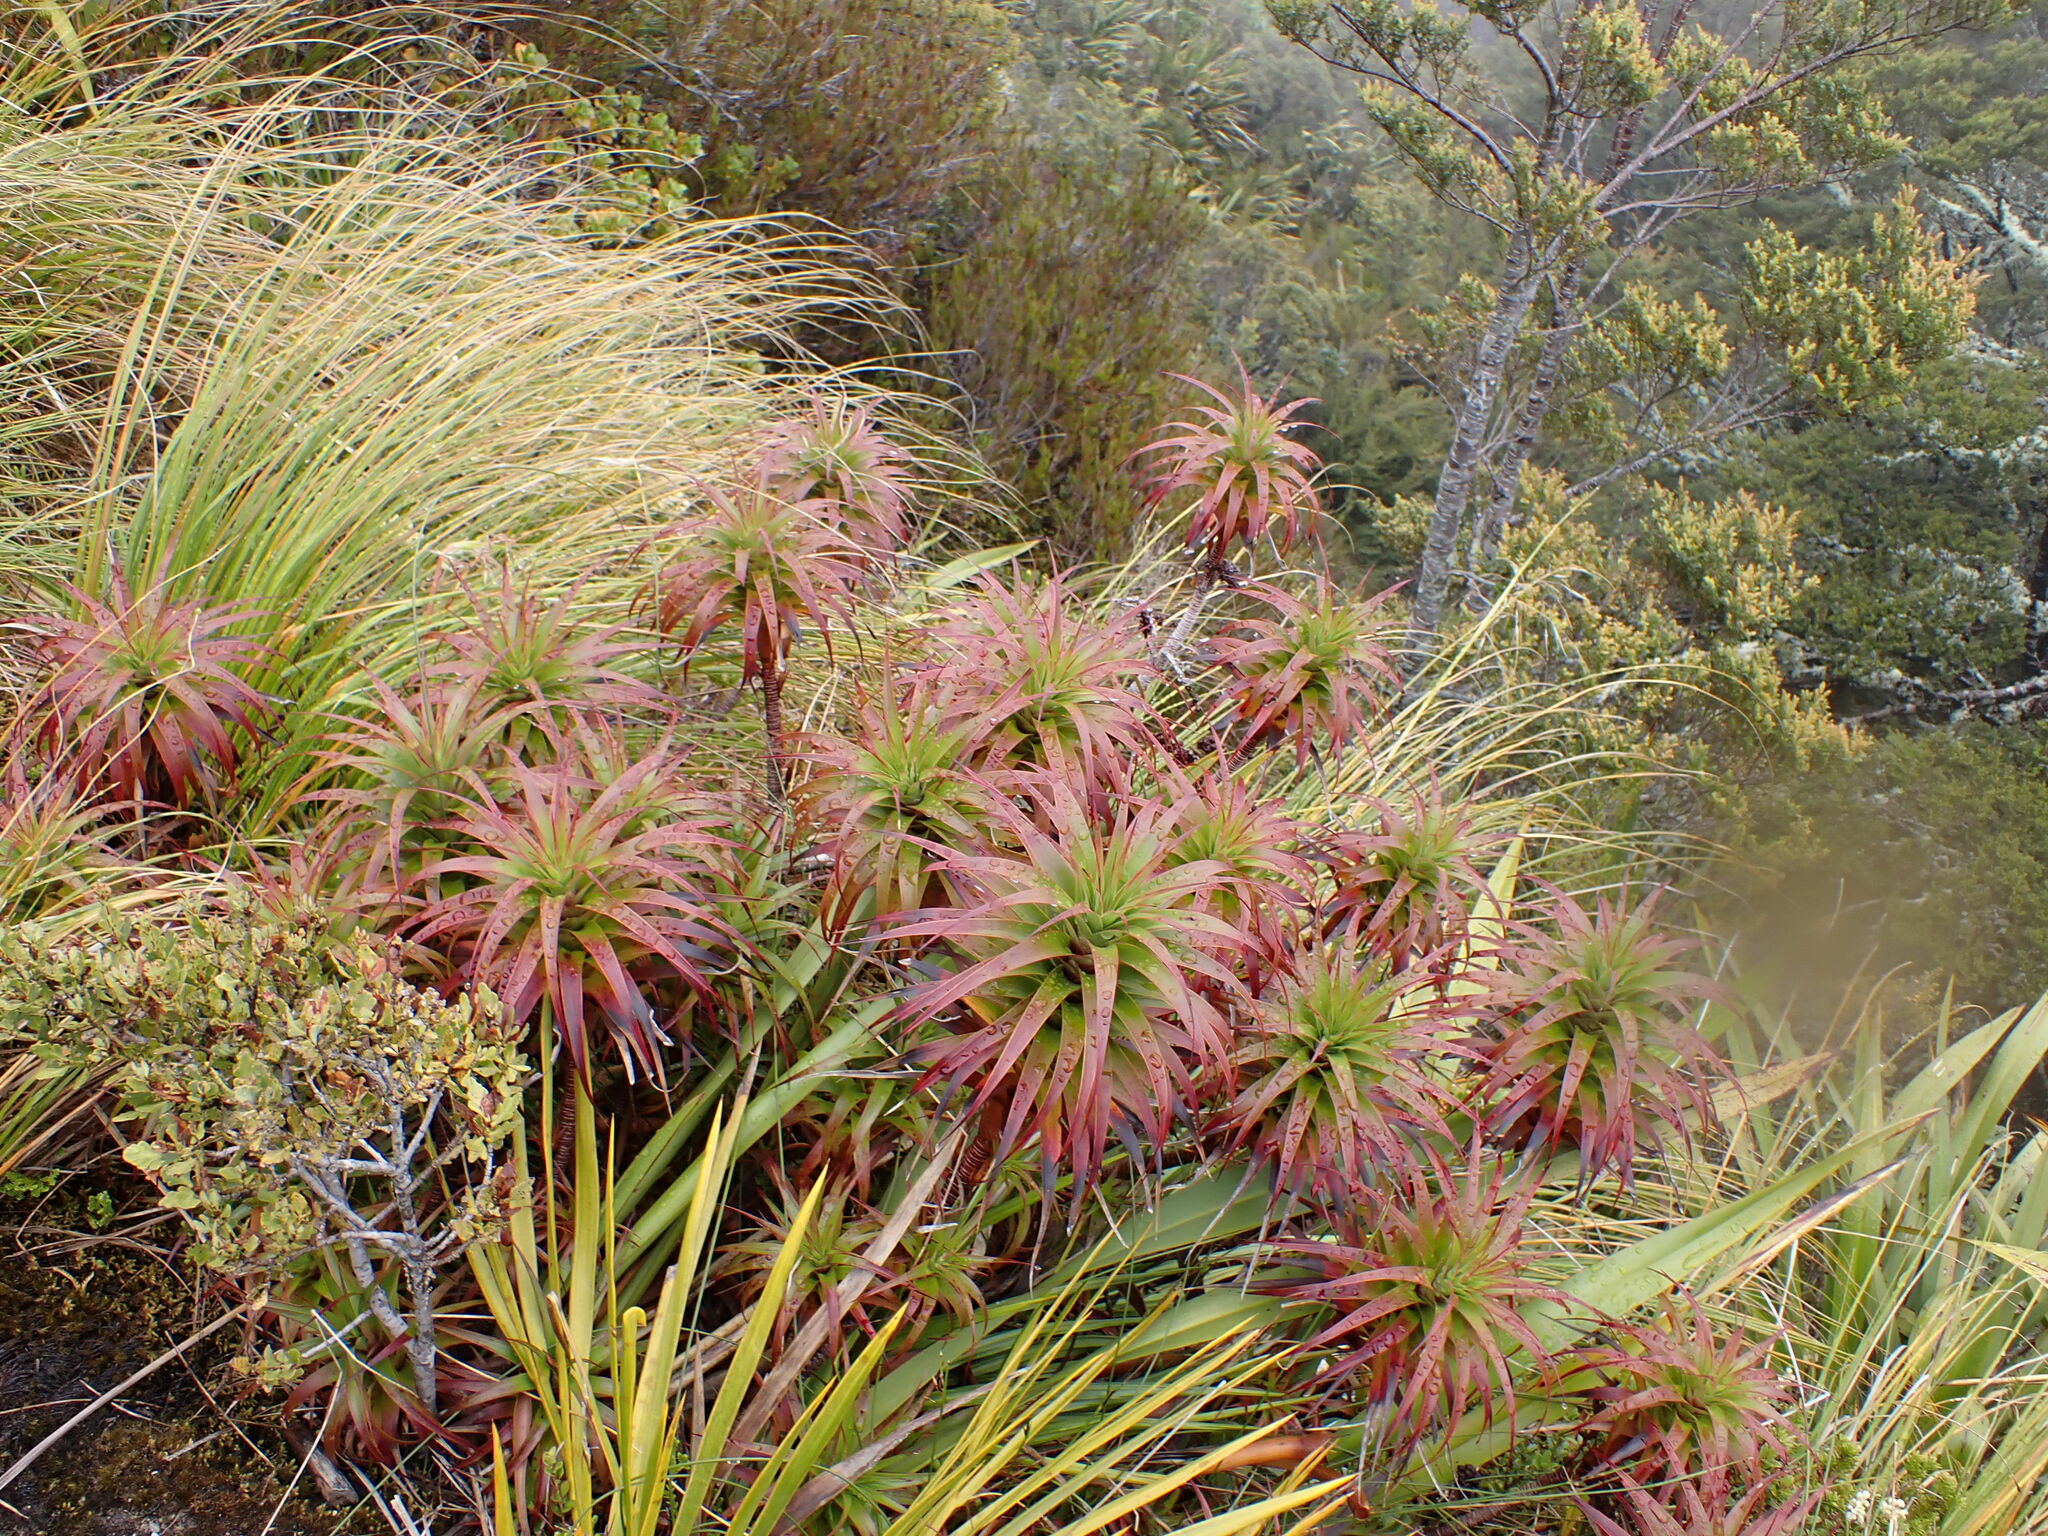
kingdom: Plantae
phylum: Tracheophyta
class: Magnoliopsida
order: Ericales
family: Ericaceae
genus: Dracophyllum
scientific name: Dracophyllum menziesii
